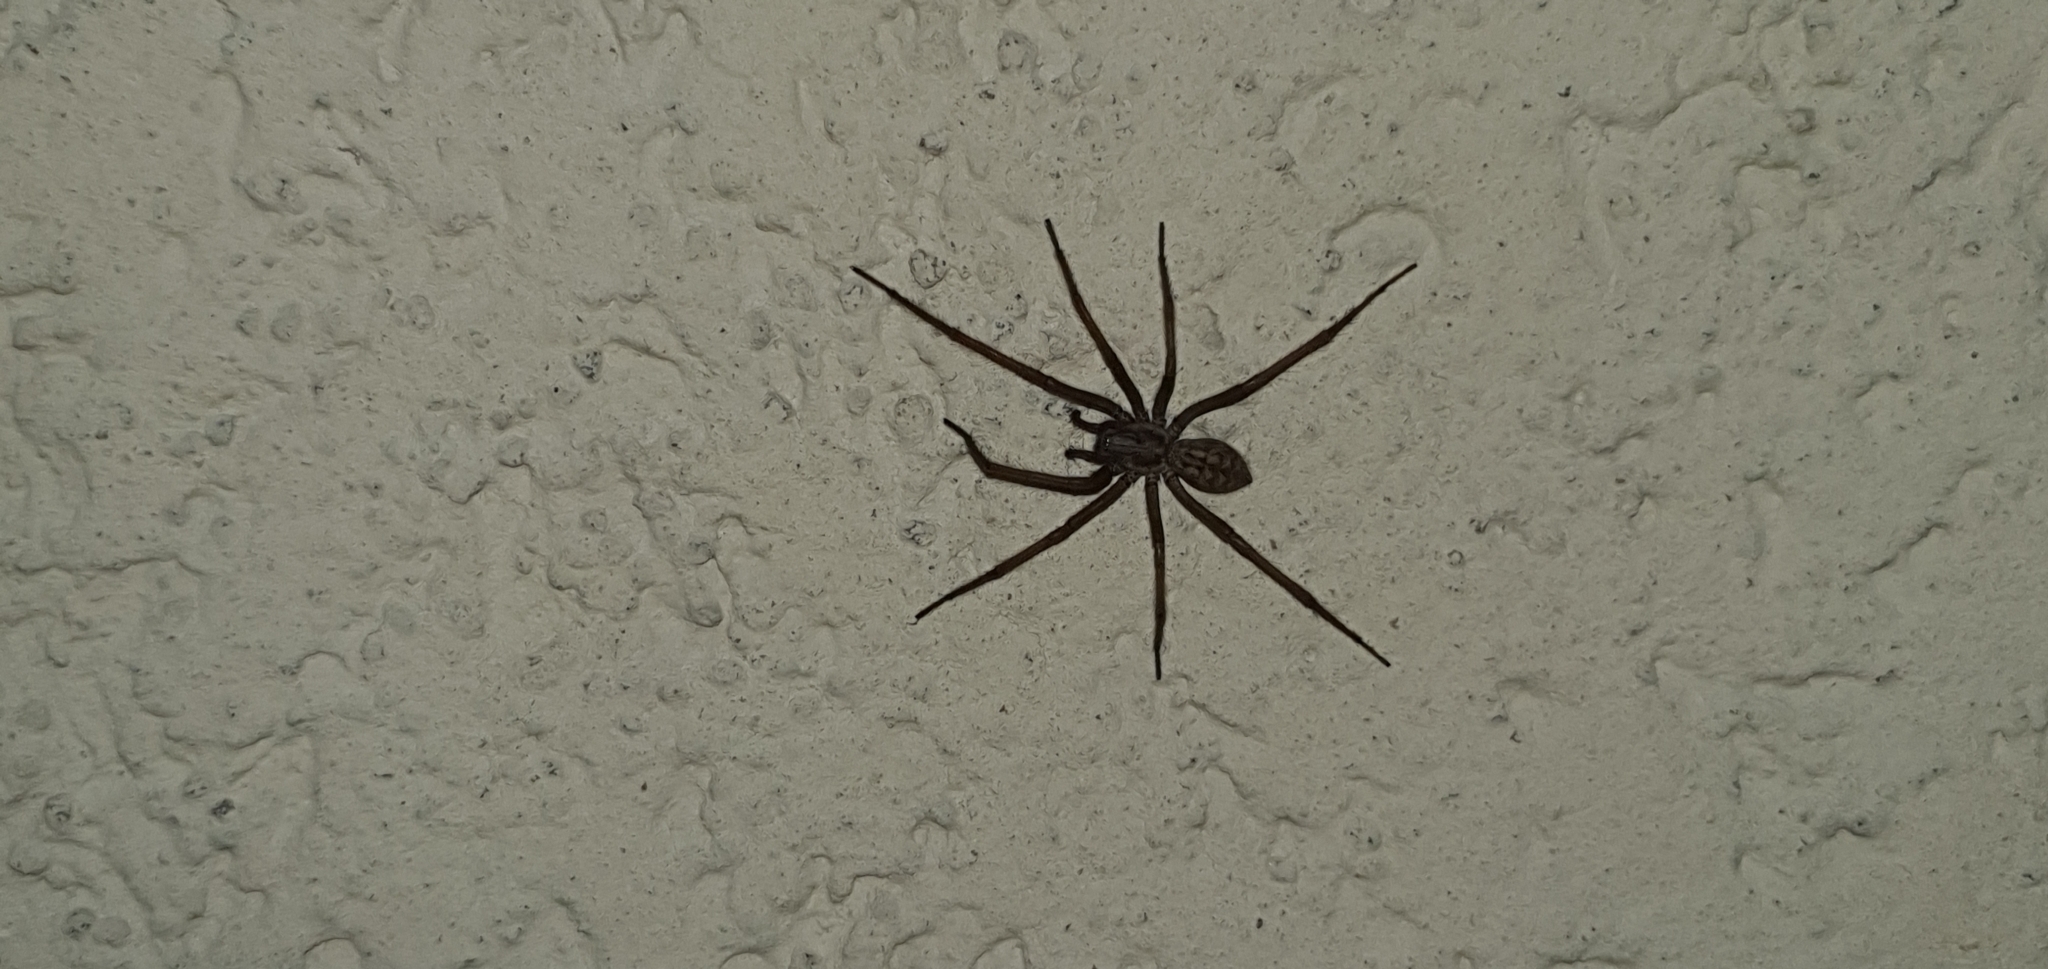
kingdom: Animalia
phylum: Arthropoda
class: Arachnida
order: Araneae
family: Agelenidae
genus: Eratigena
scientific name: Eratigena
